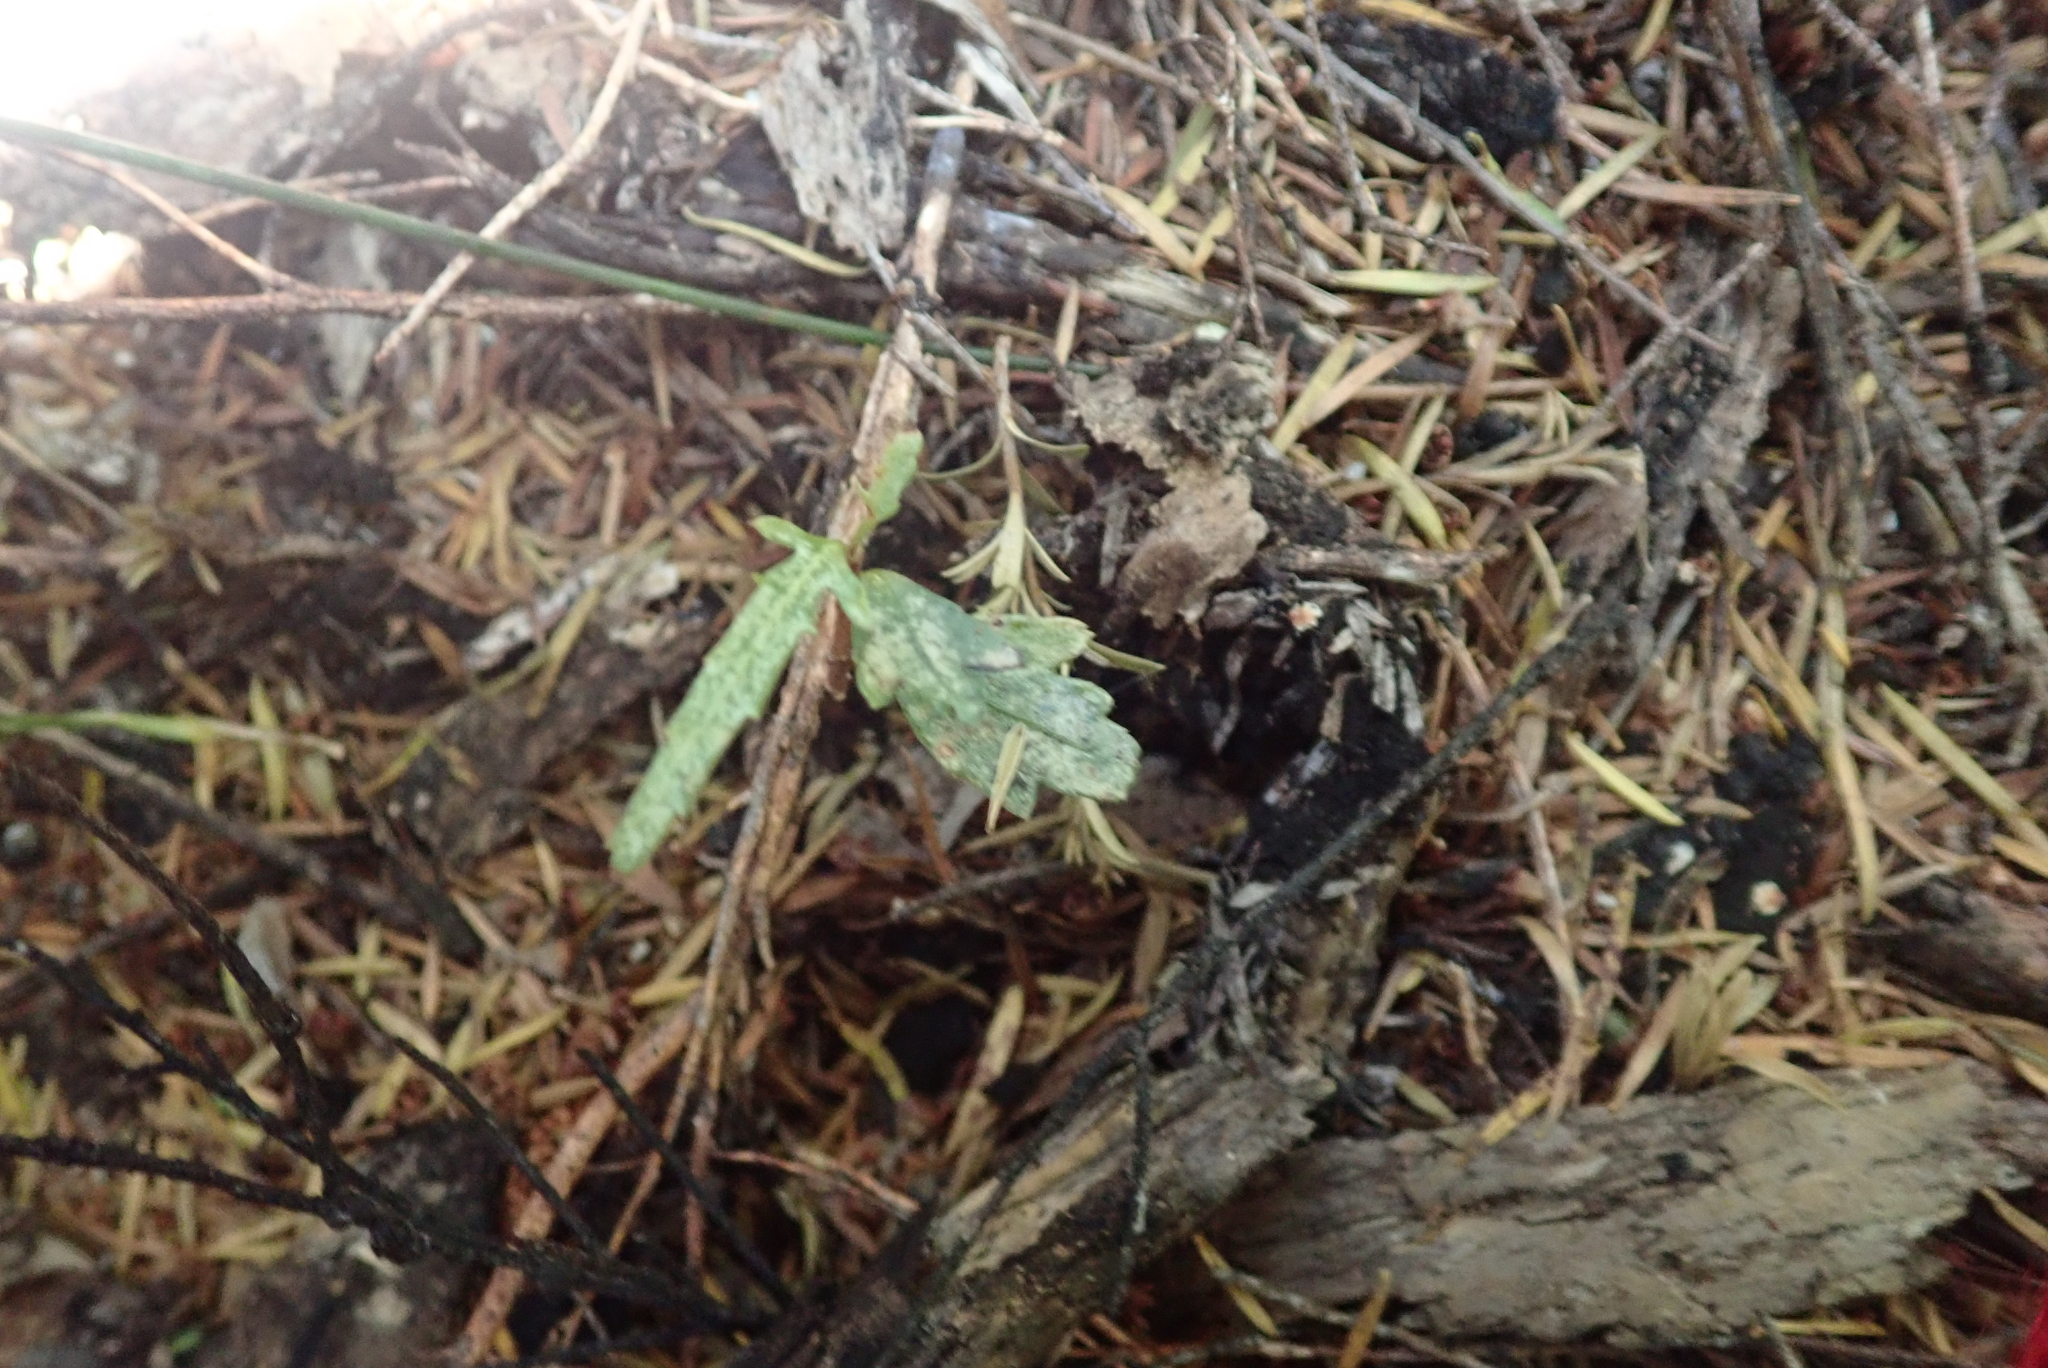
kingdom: Plantae
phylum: Tracheophyta
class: Magnoliopsida
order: Apiales
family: Araliaceae
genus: Pseudopanax
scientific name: Pseudopanax crassifolius
